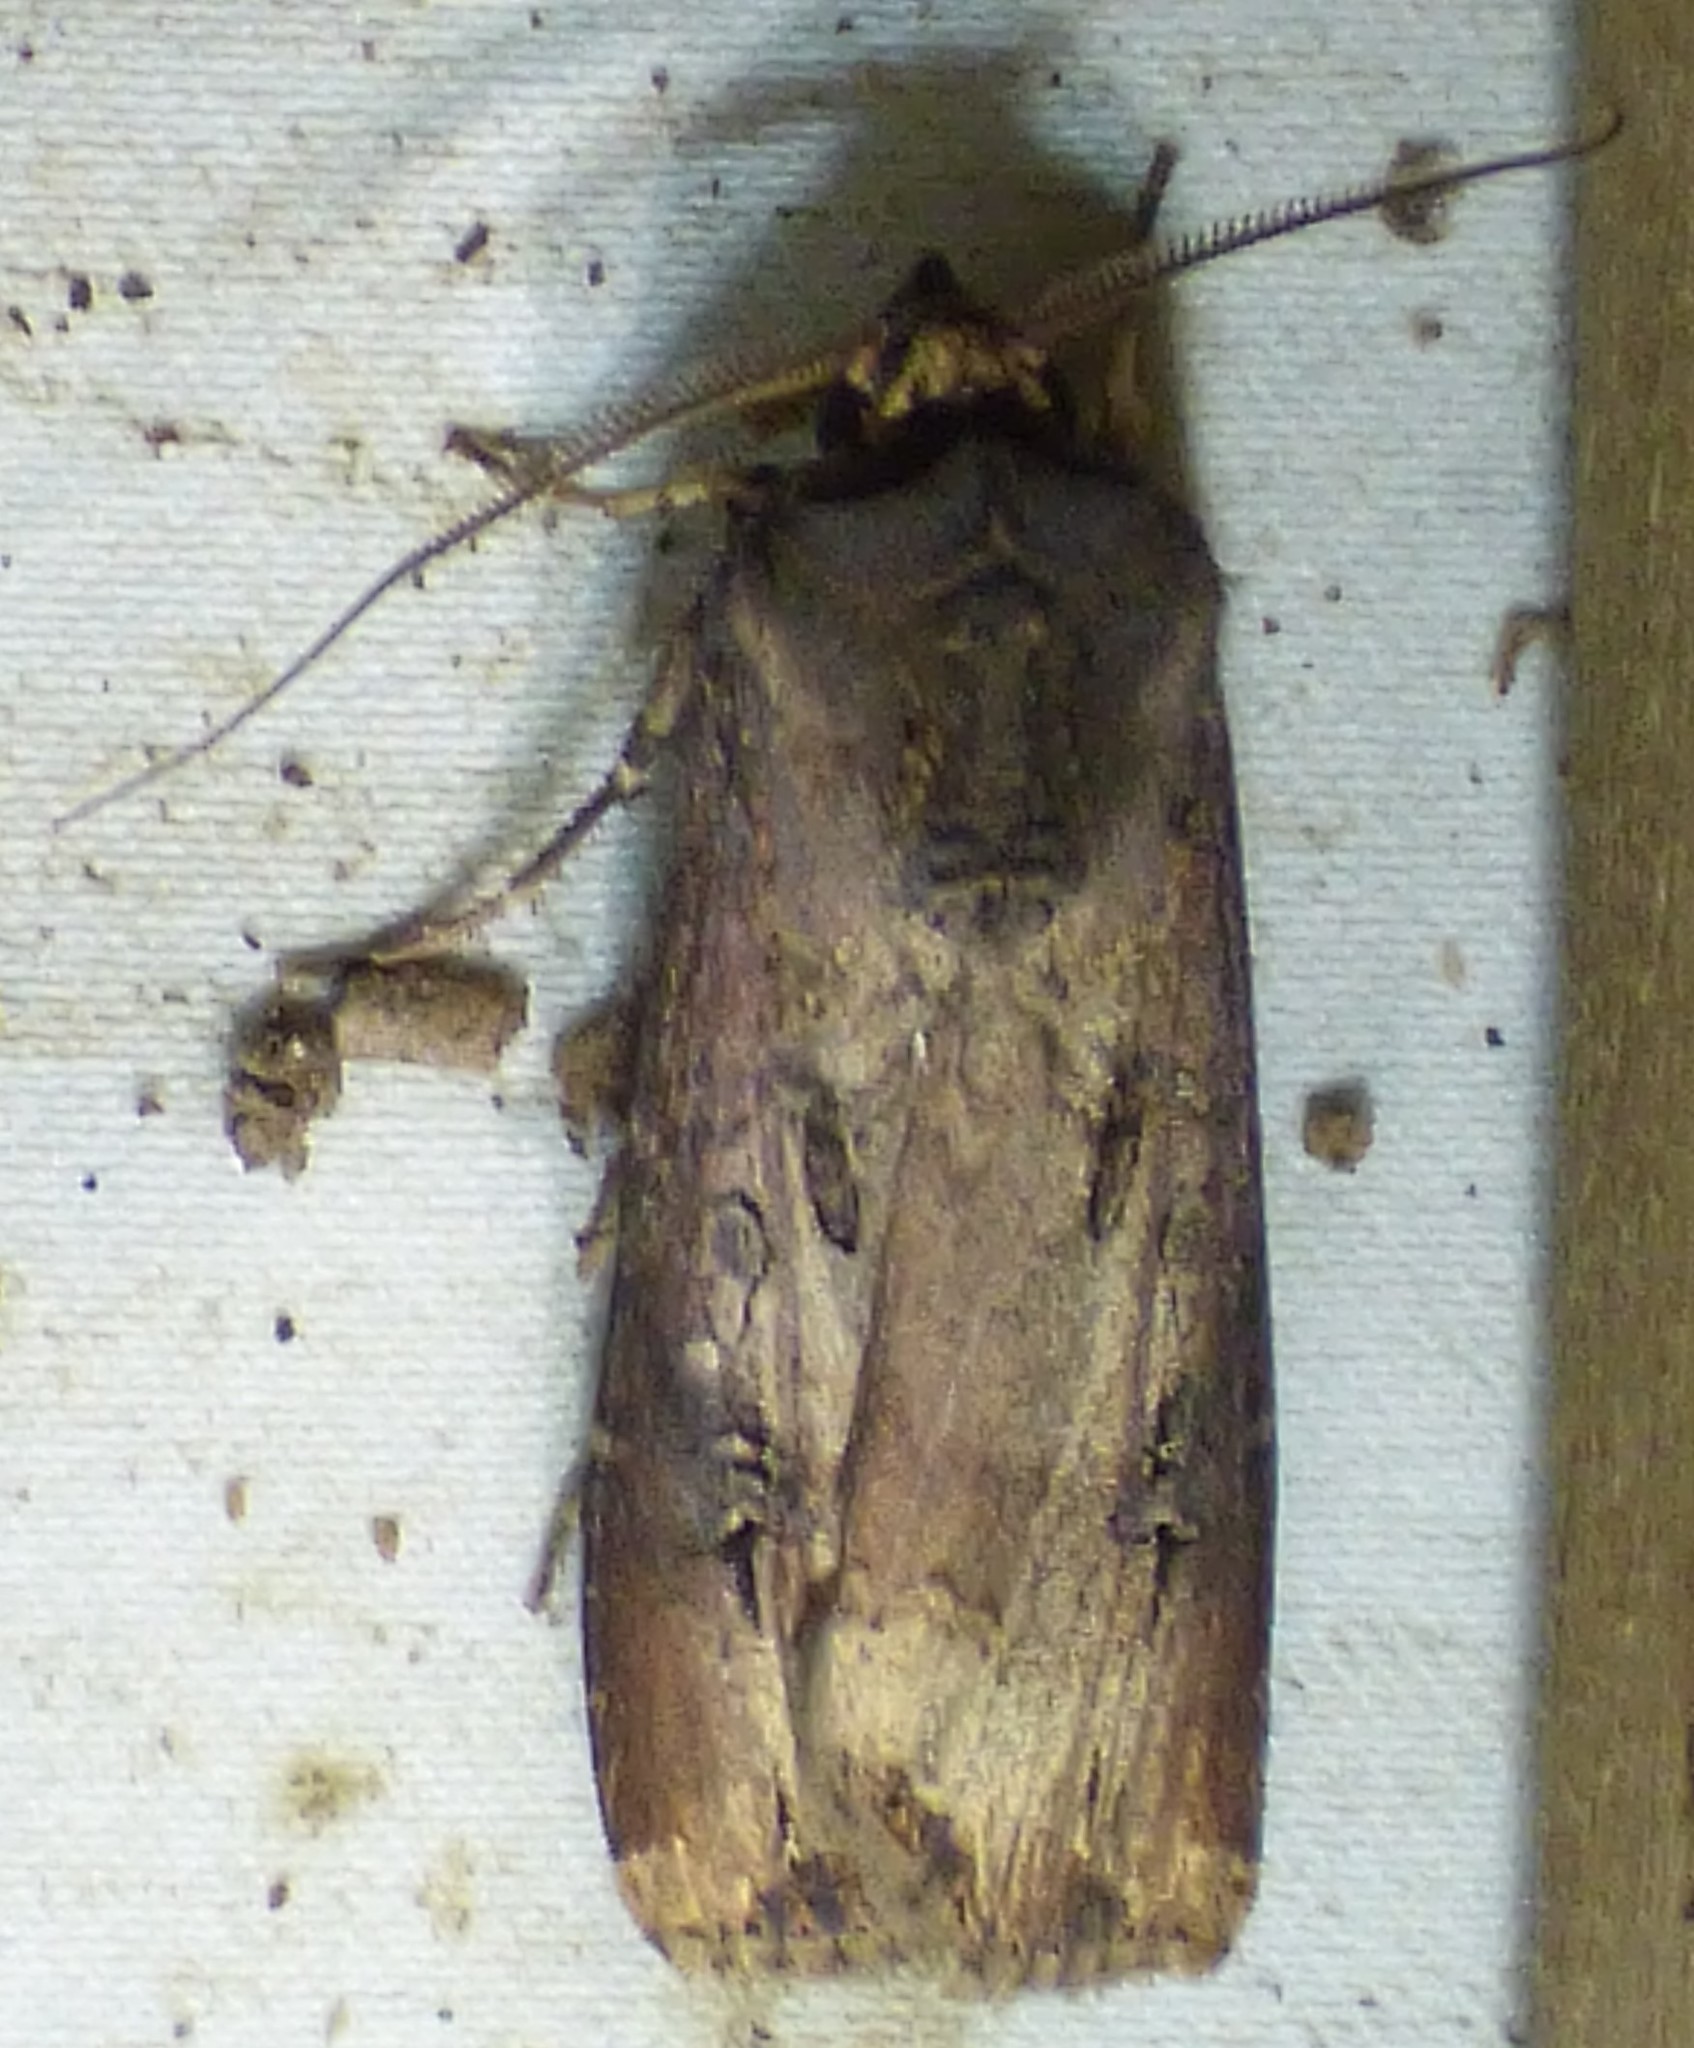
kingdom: Animalia
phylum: Arthropoda
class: Insecta
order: Lepidoptera
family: Noctuidae
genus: Agrotis
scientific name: Agrotis ipsilon
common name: Dark sword-grass
